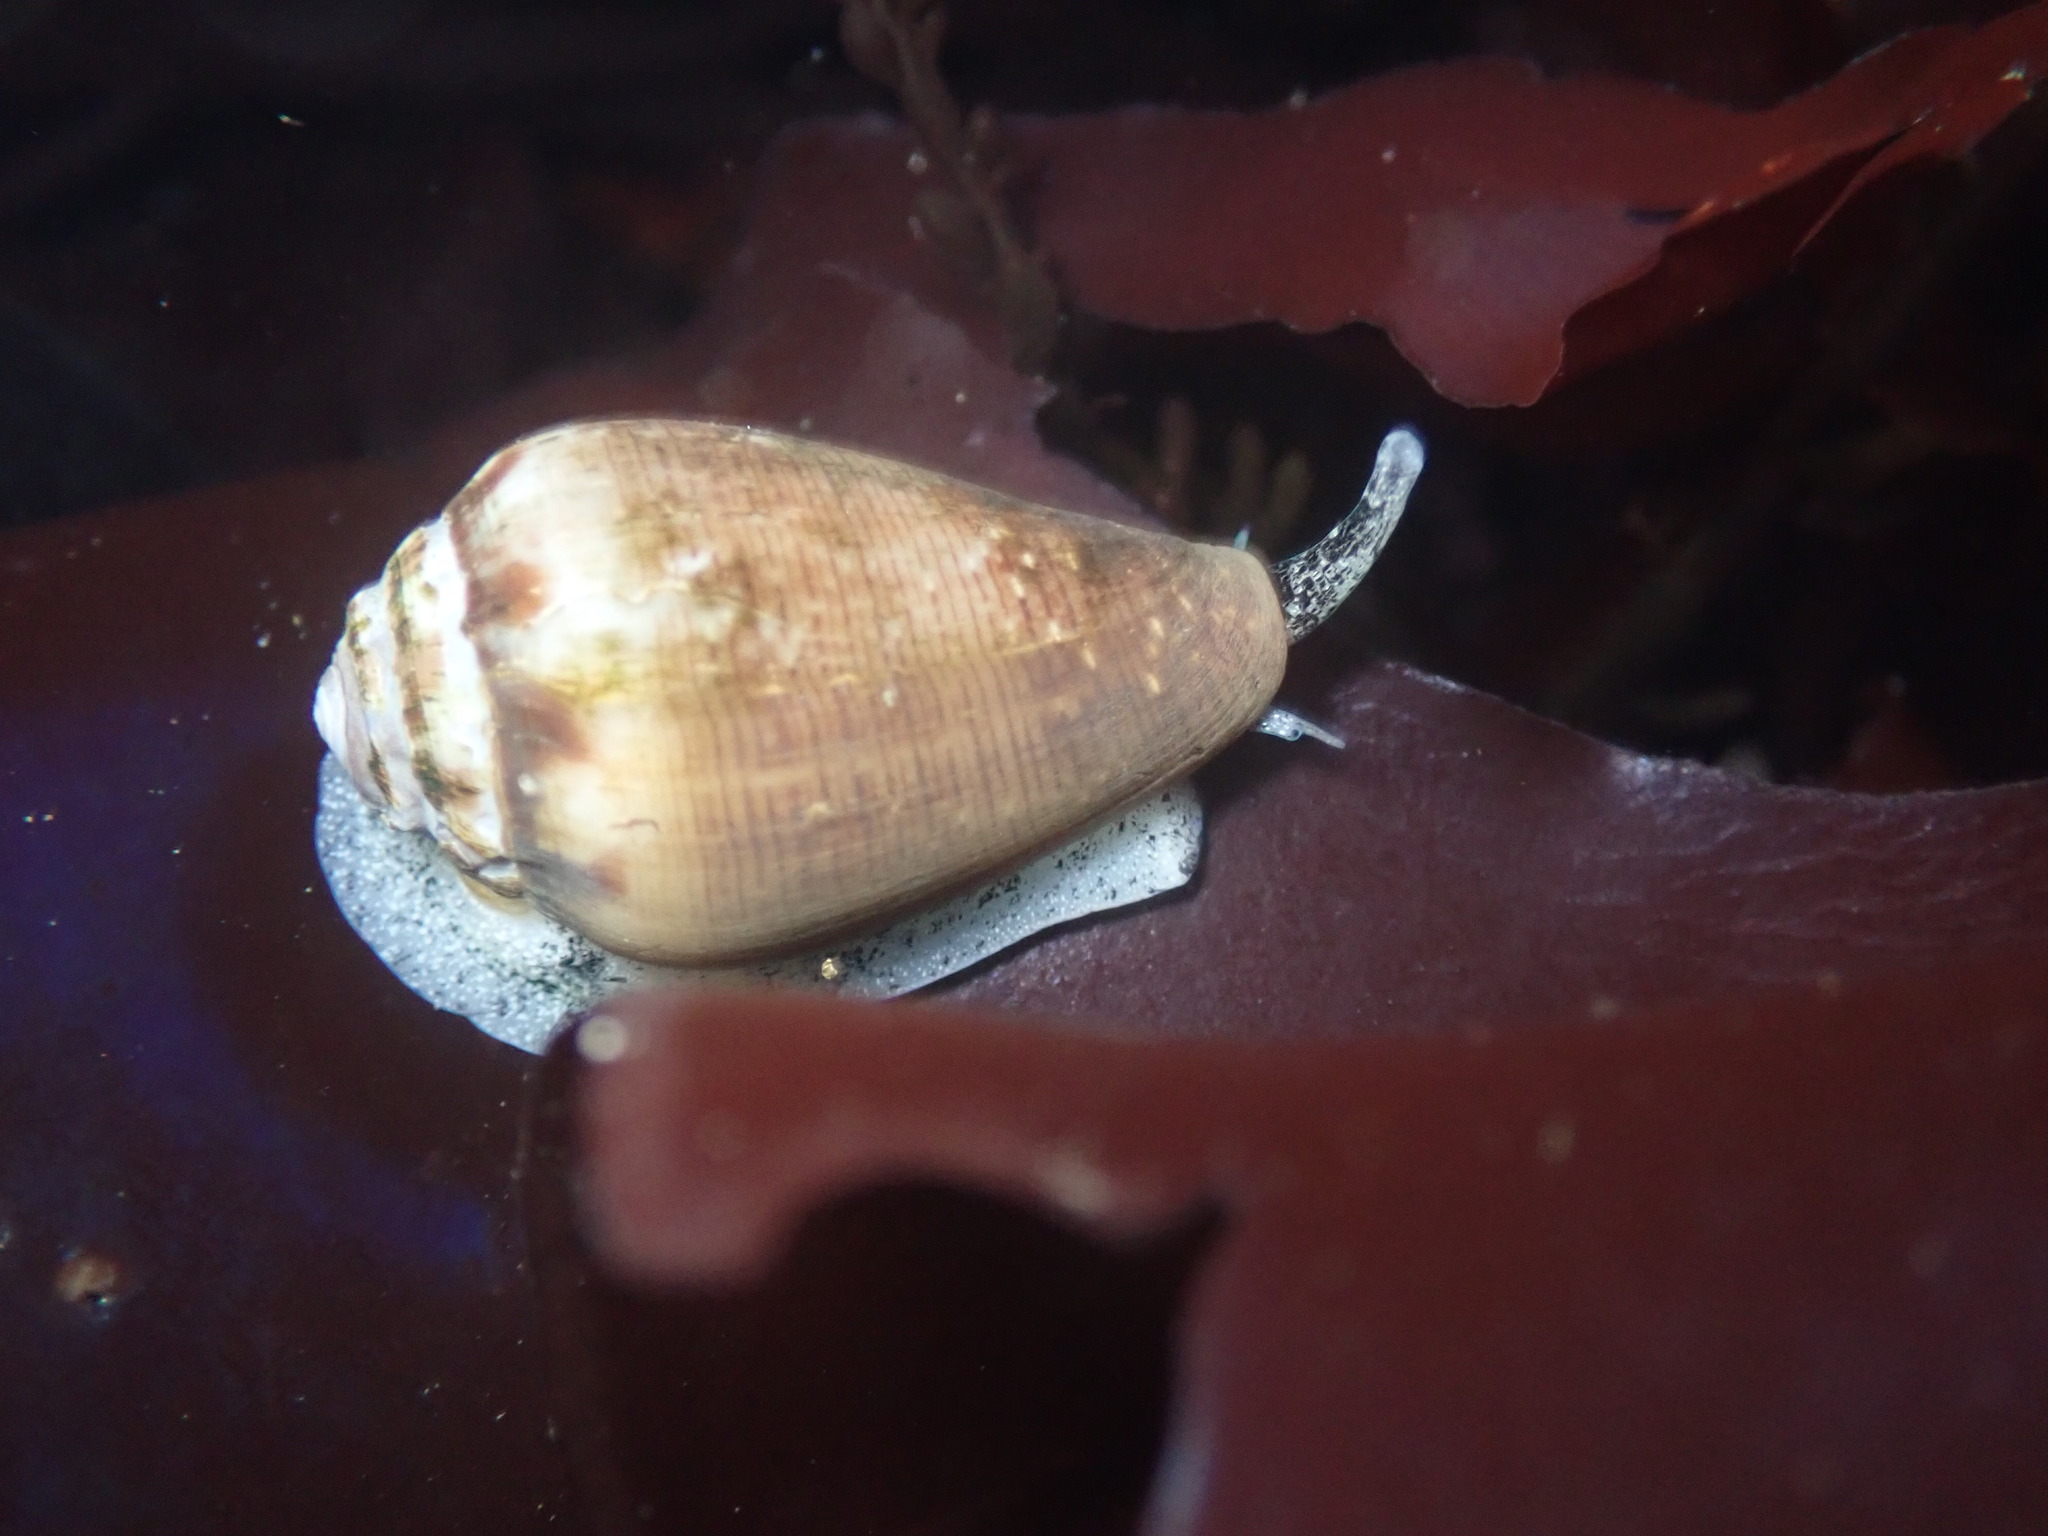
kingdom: Animalia
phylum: Mollusca
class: Gastropoda
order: Neogastropoda
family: Conidae
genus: Californiconus
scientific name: Californiconus californicus
